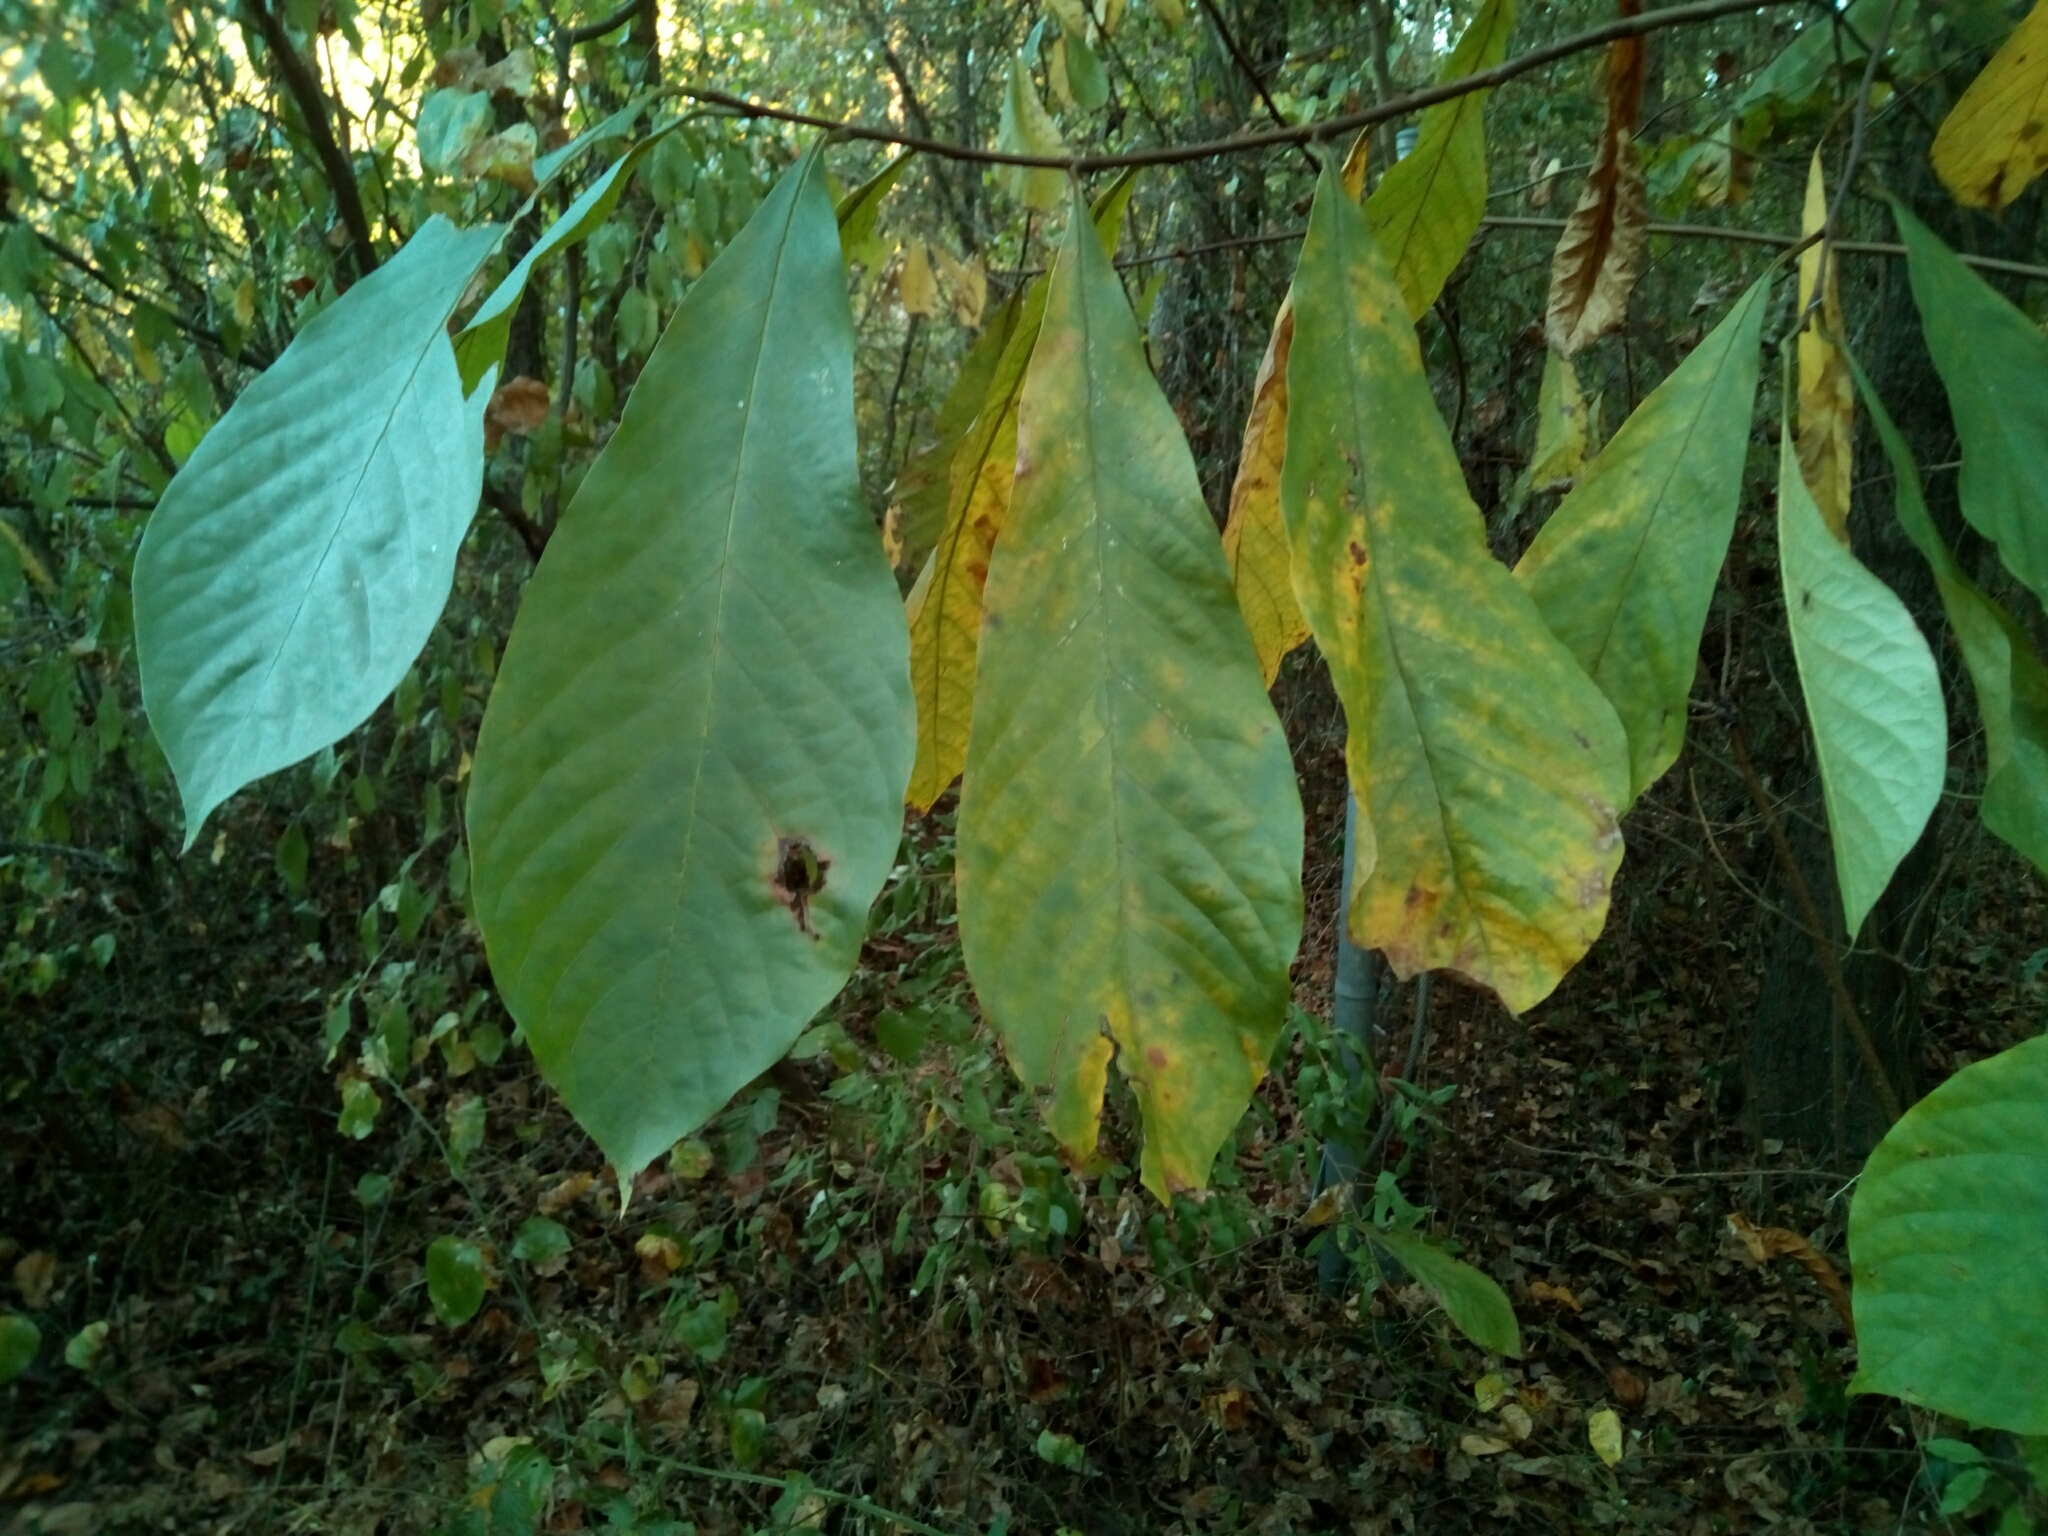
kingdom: Plantae
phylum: Tracheophyta
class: Magnoliopsida
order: Magnoliales
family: Annonaceae
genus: Asimina
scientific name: Asimina triloba
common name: Dog-banana
